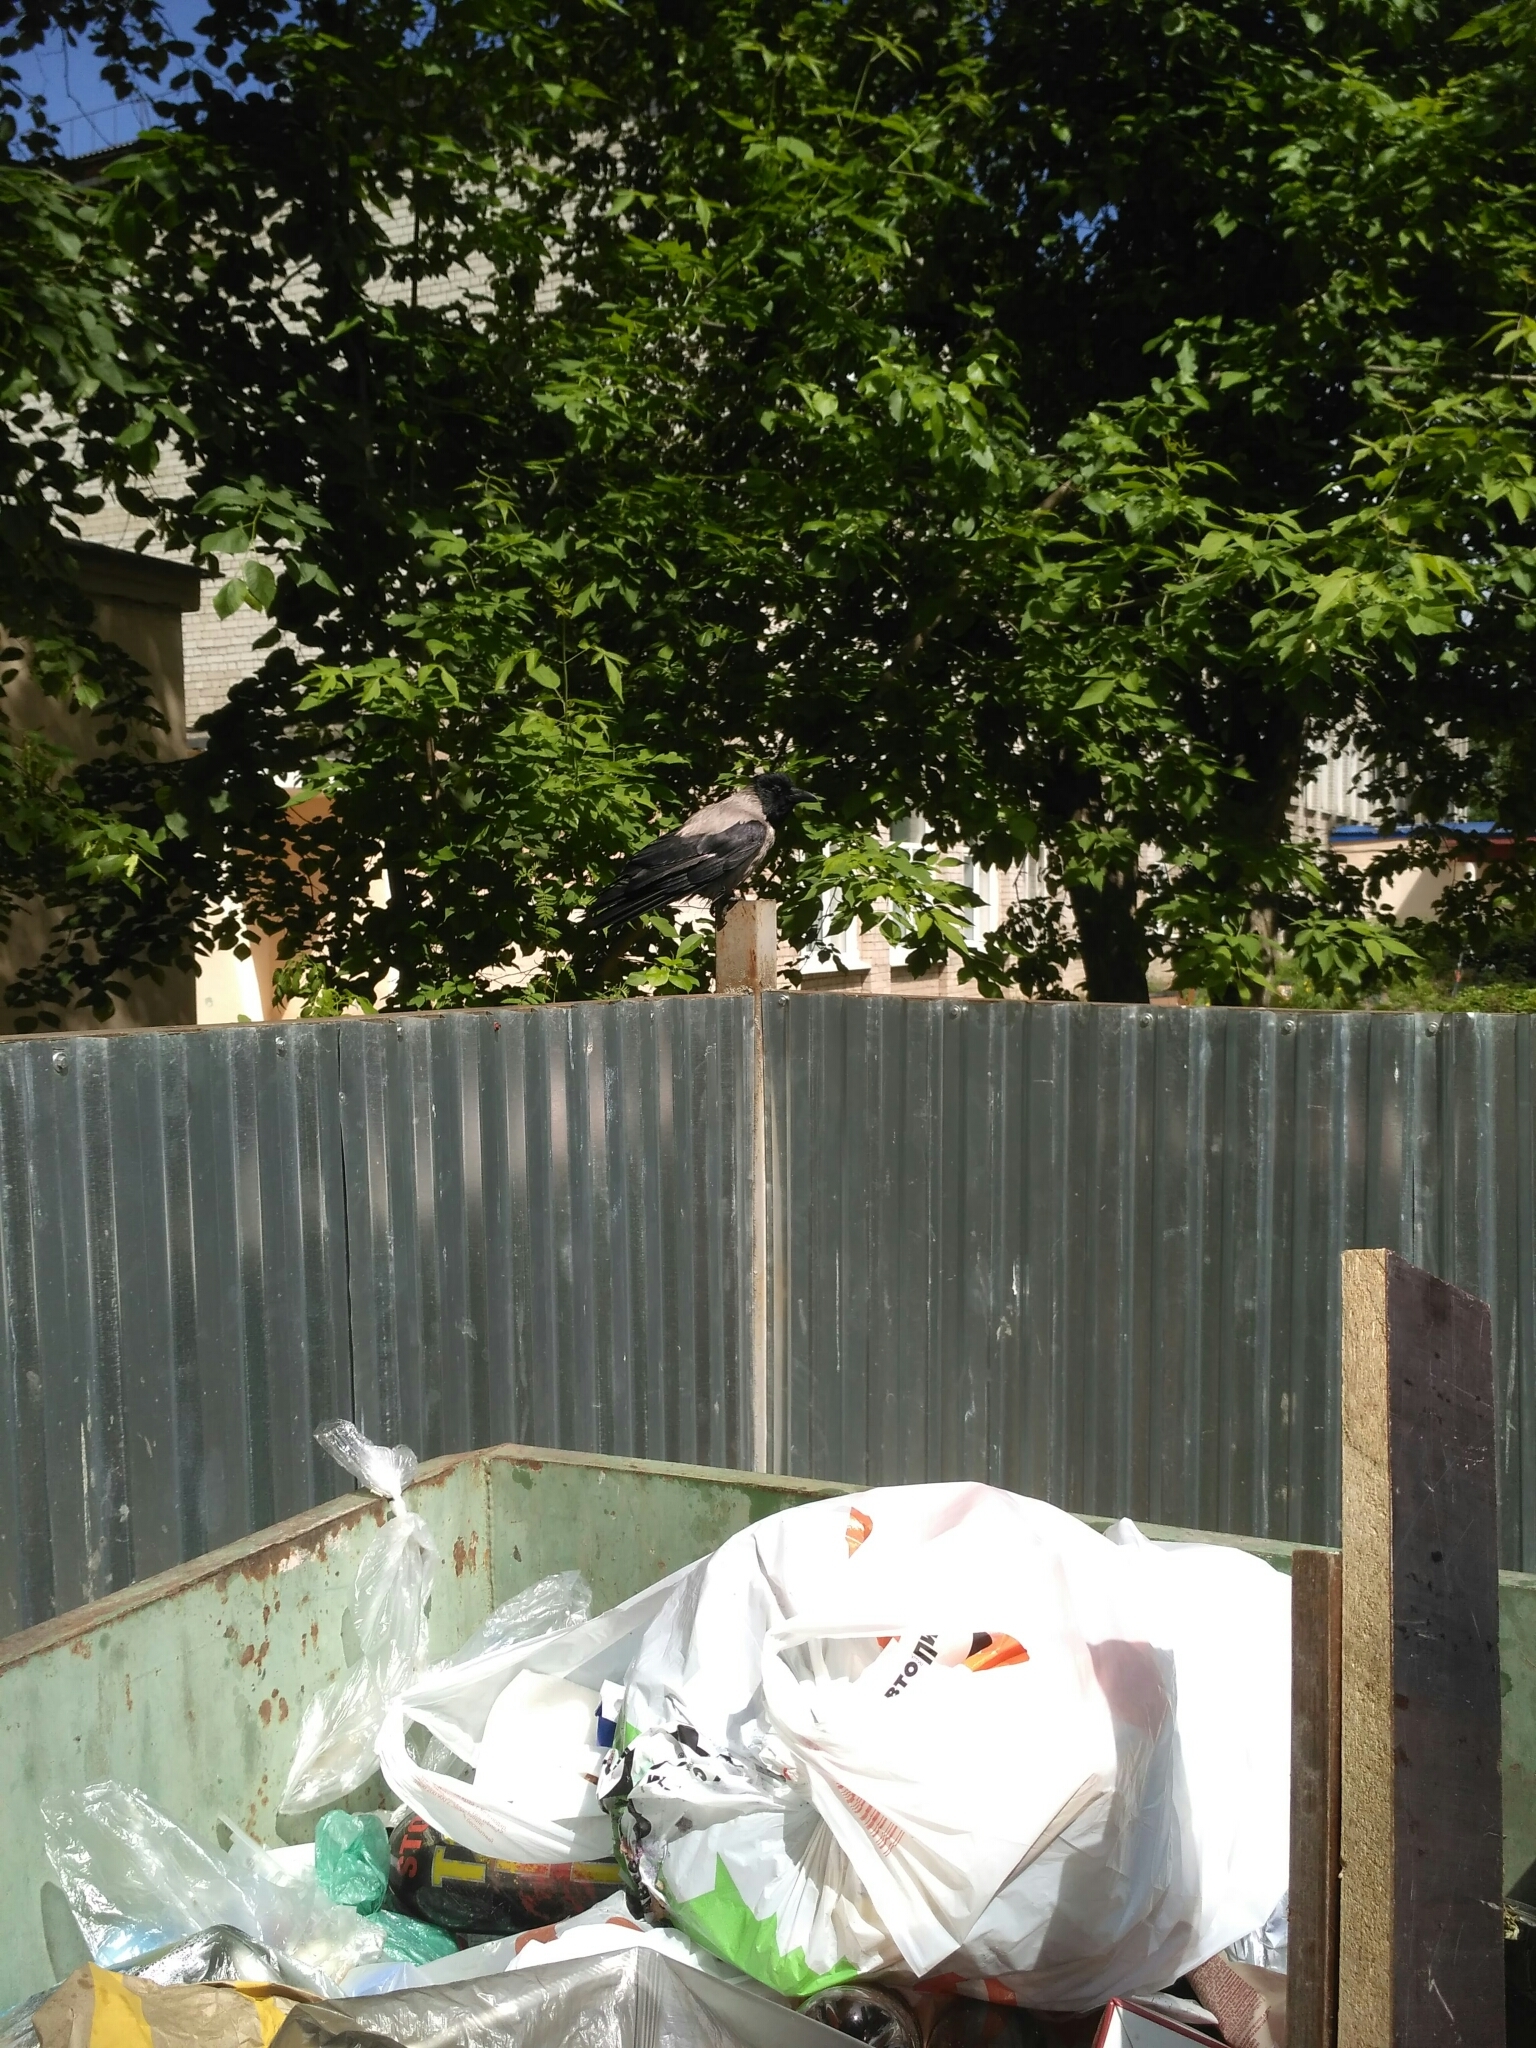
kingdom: Animalia
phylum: Chordata
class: Aves
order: Passeriformes
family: Corvidae
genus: Corvus
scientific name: Corvus cornix
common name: Hooded crow
